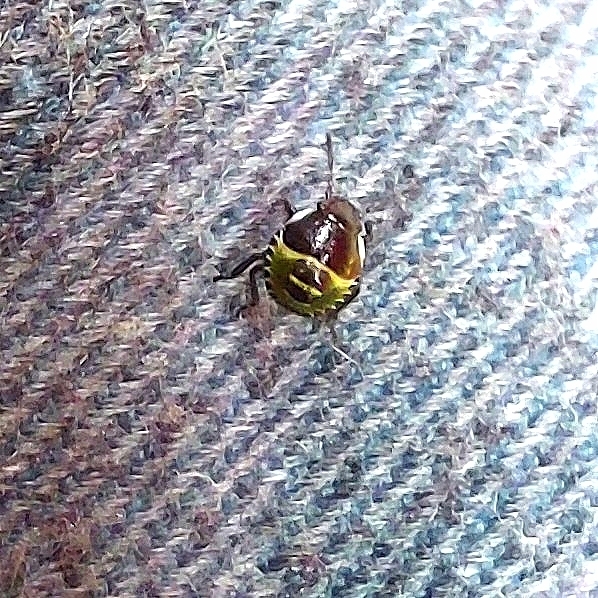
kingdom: Animalia
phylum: Arthropoda
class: Insecta
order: Hemiptera
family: Pentatomidae
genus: Palomena
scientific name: Palomena prasina
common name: Green shieldbug
